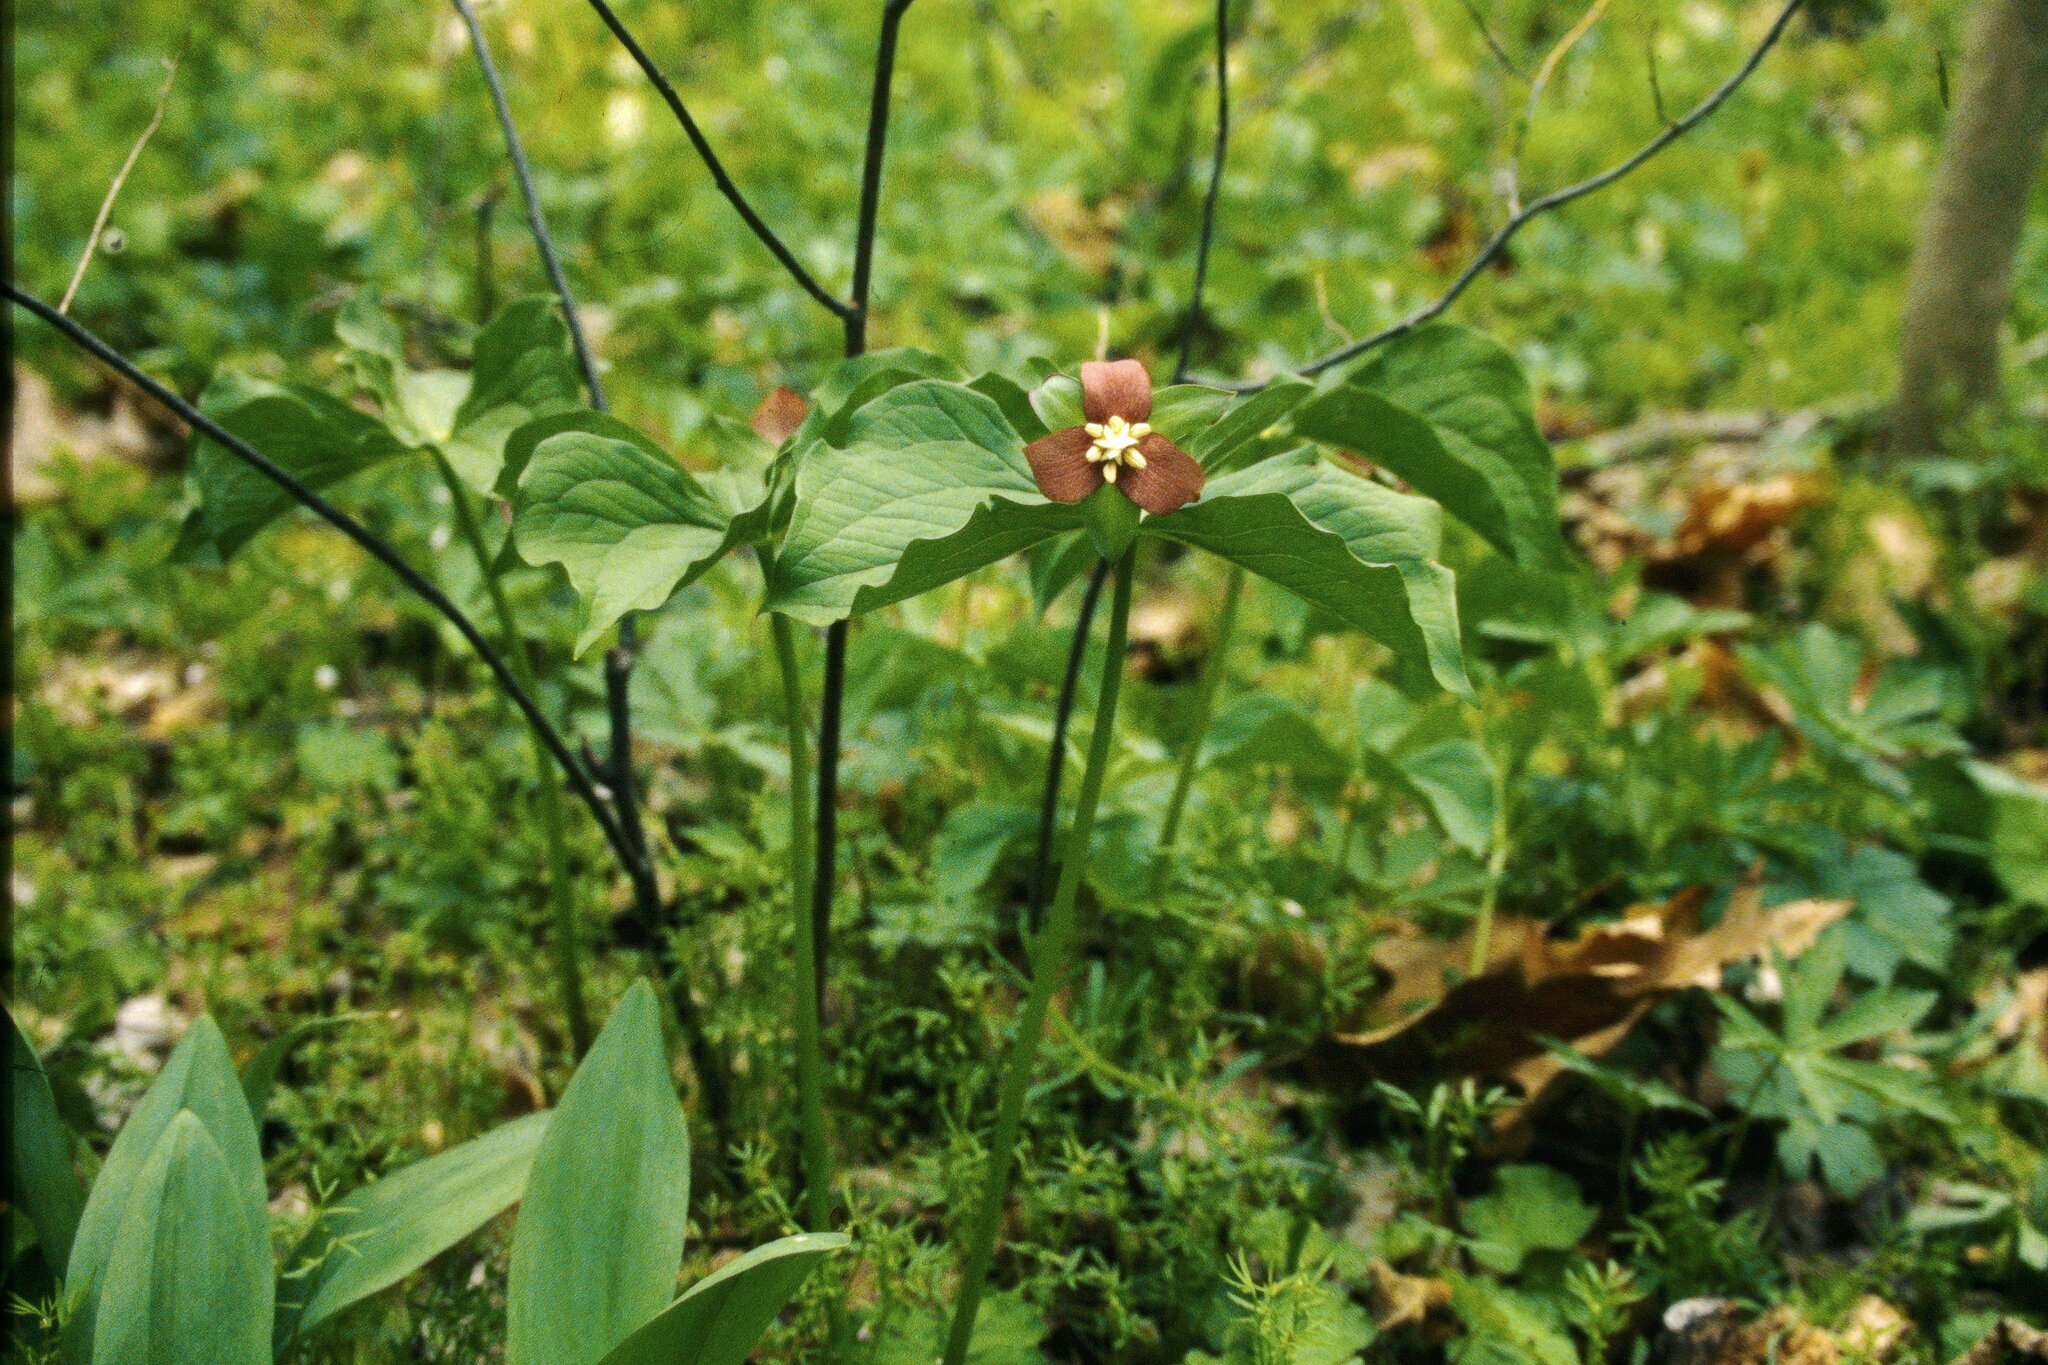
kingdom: Plantae
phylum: Tracheophyta
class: Liliopsida
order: Liliales
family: Melanthiaceae
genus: Trillium
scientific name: Trillium flexipes
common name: Drooping trillium
